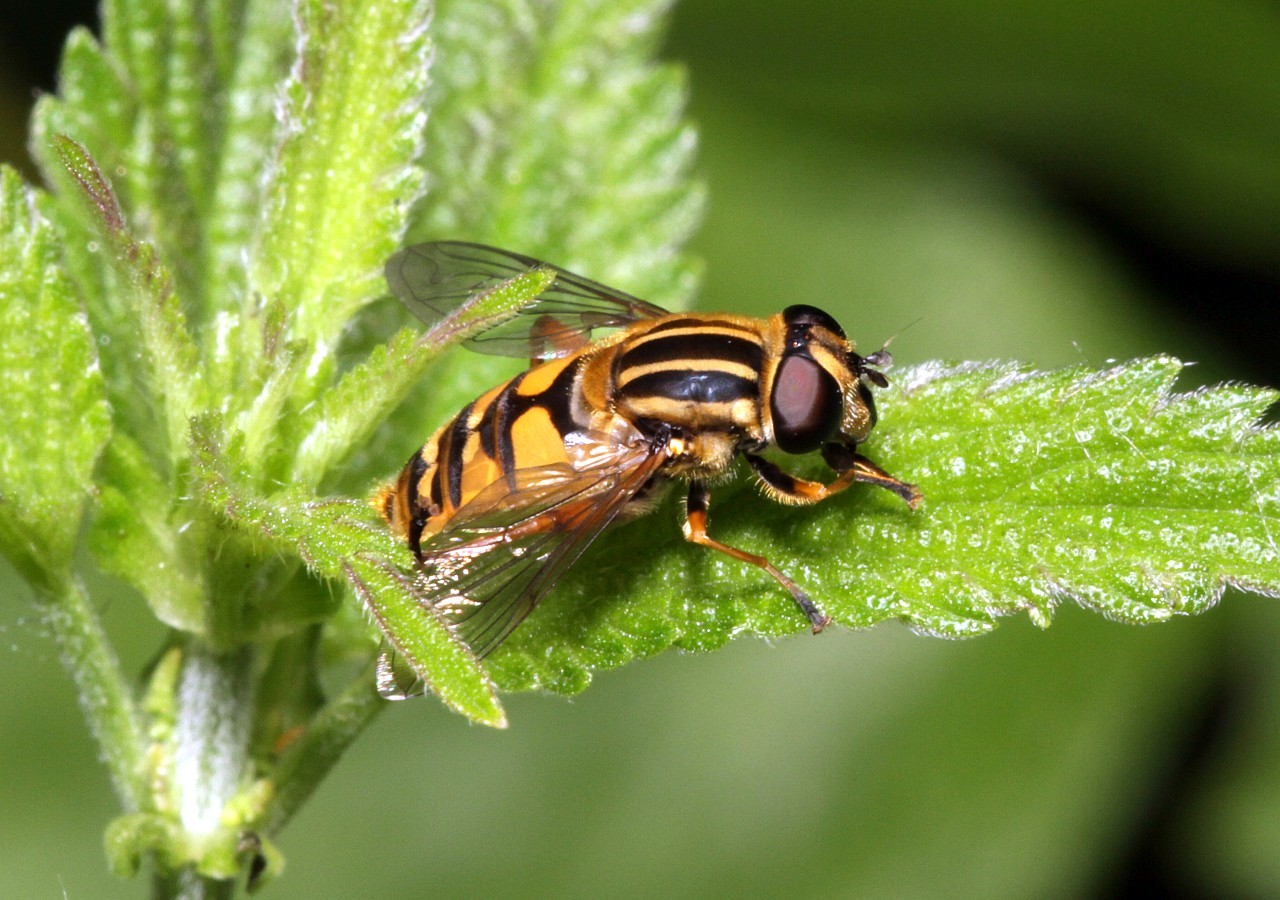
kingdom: Animalia
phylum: Arthropoda
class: Insecta
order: Diptera
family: Syrphidae
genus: Helophilus
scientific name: Helophilus pendulus
